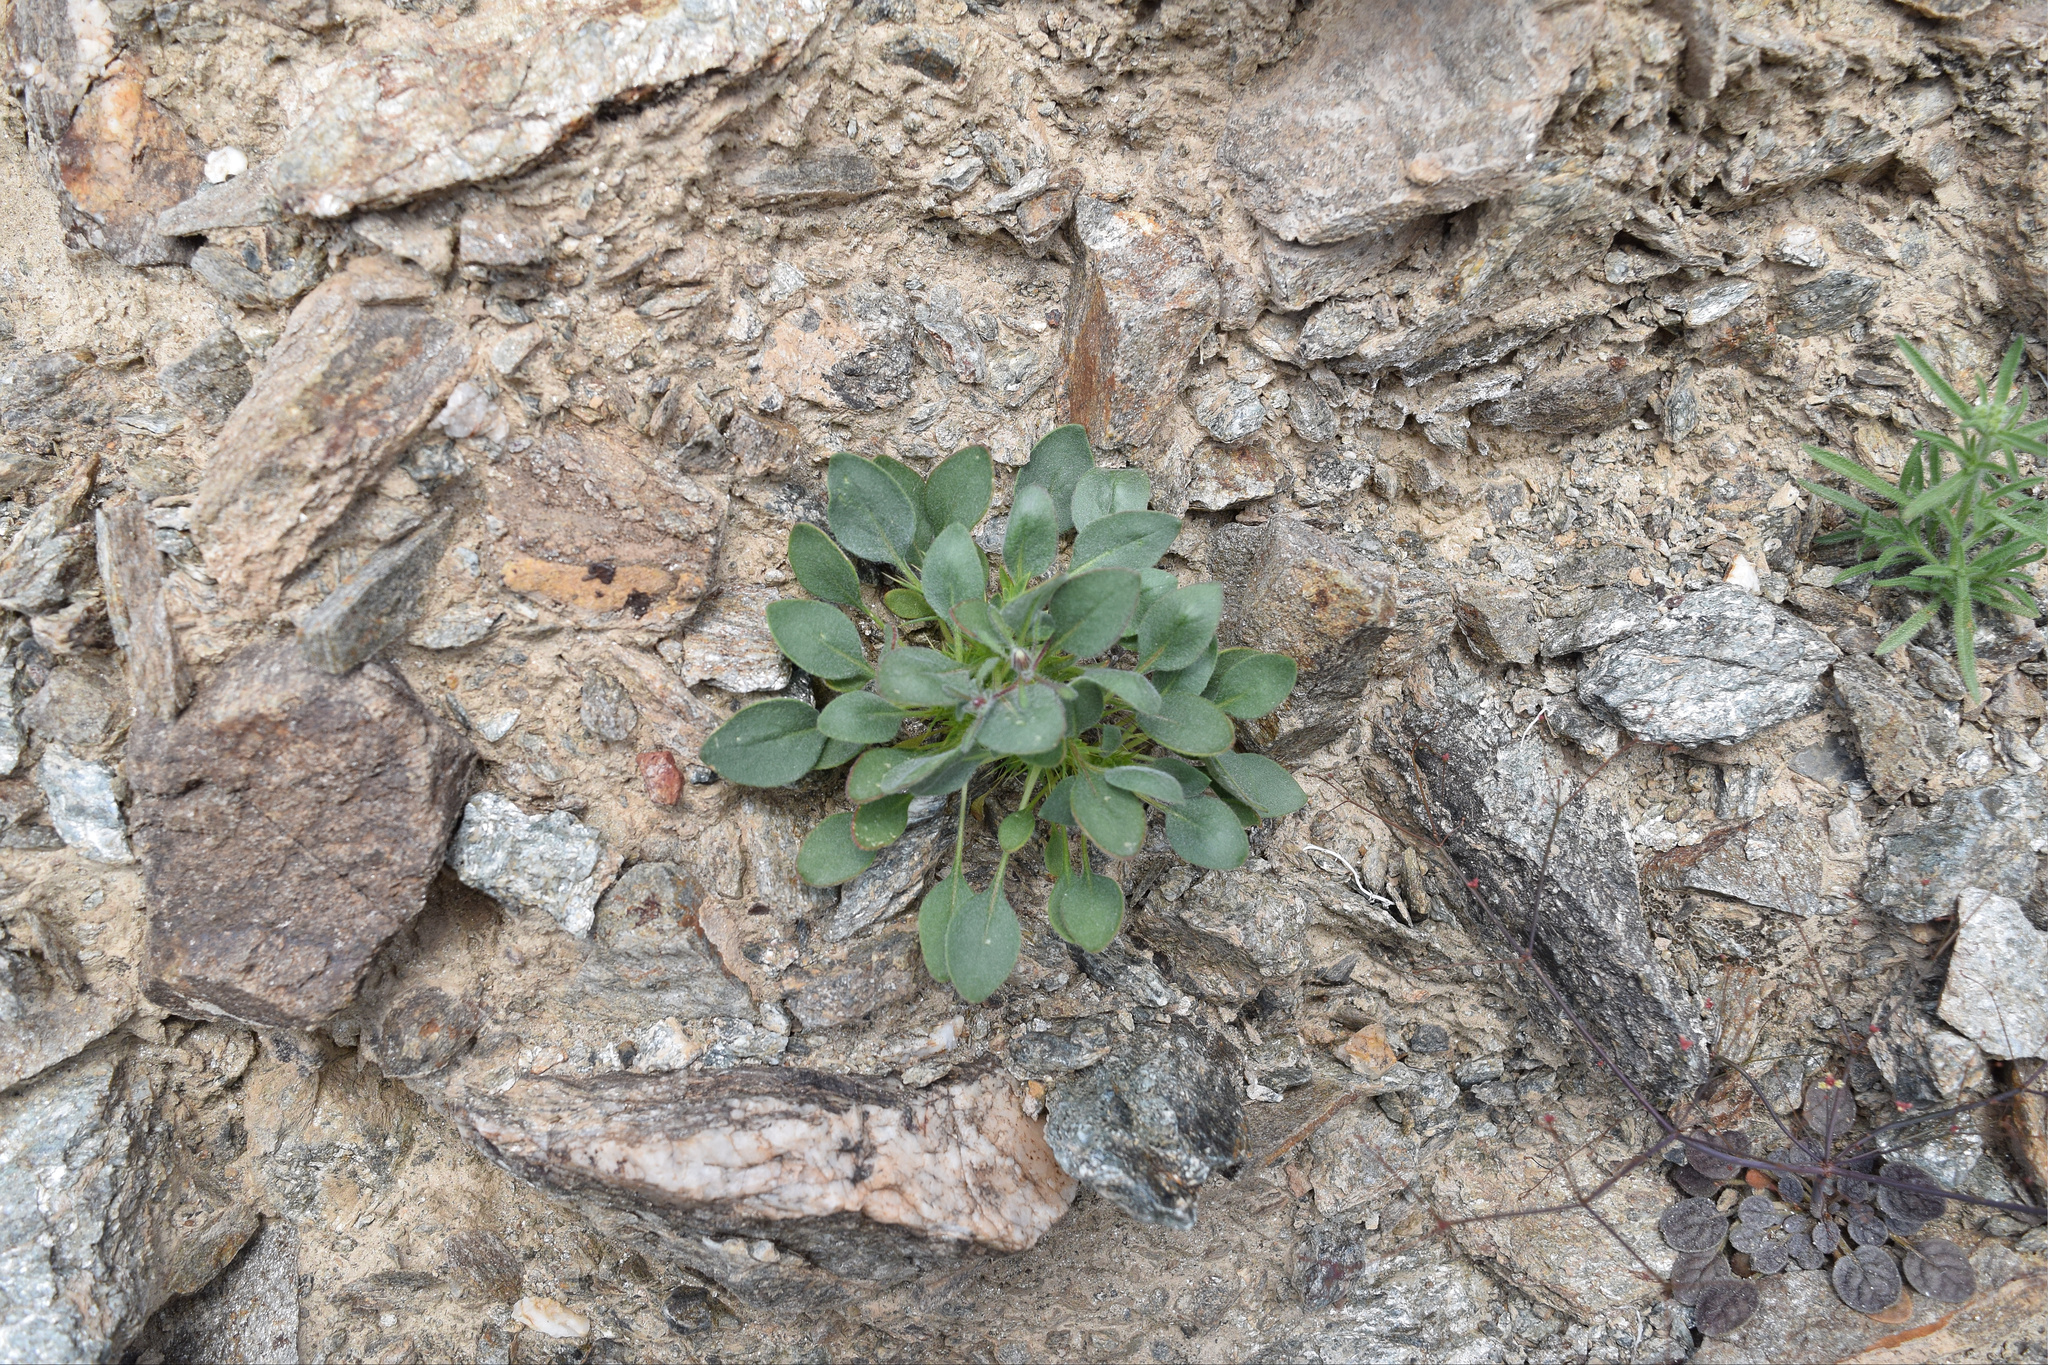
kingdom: Plantae
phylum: Tracheophyta
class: Magnoliopsida
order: Caryophyllales
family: Polygonaceae
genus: Chorizanthe
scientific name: Chorizanthe rigida
